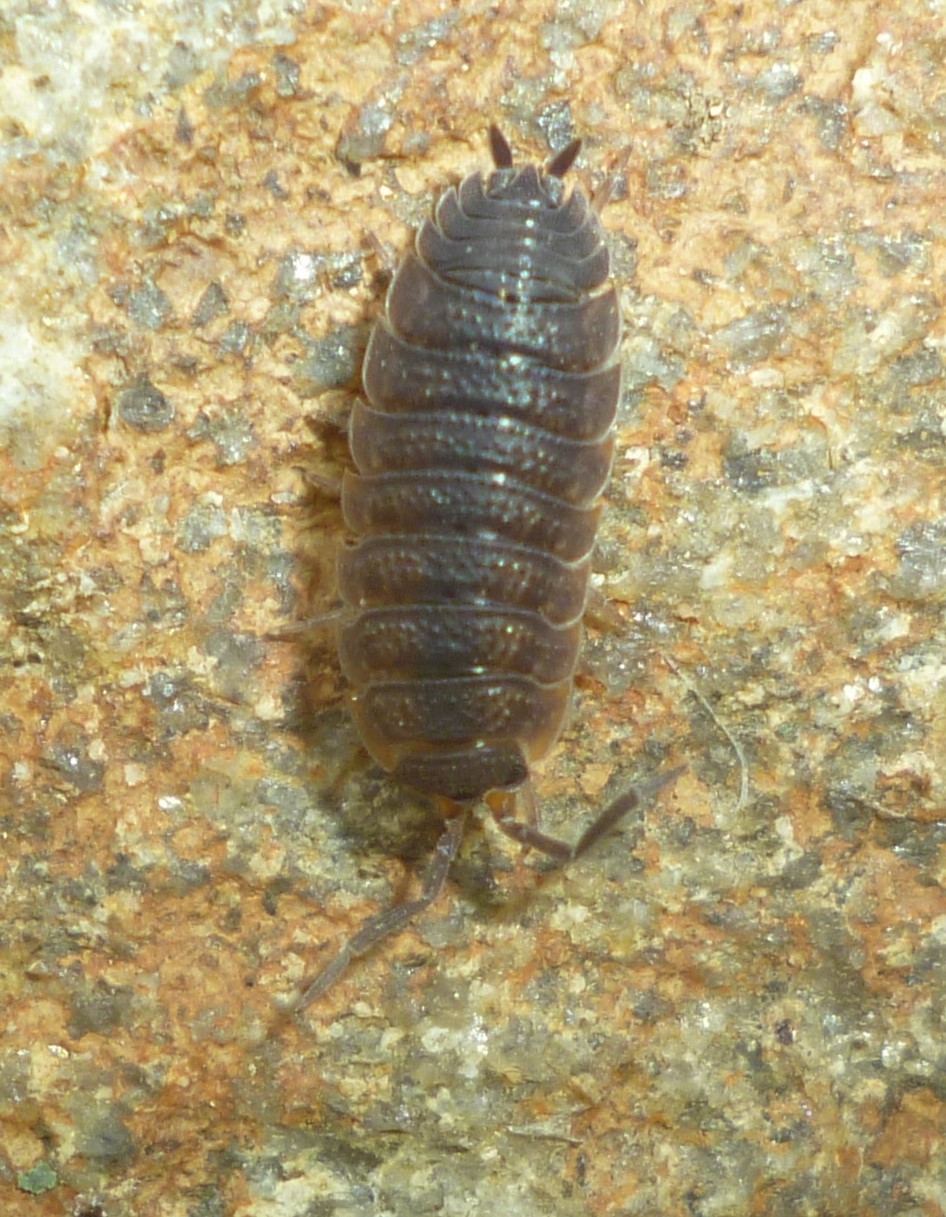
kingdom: Animalia
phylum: Arthropoda
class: Malacostraca
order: Isopoda
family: Porcellionidae
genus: Porcellio
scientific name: Porcellio scaber
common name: Common rough woodlouse
